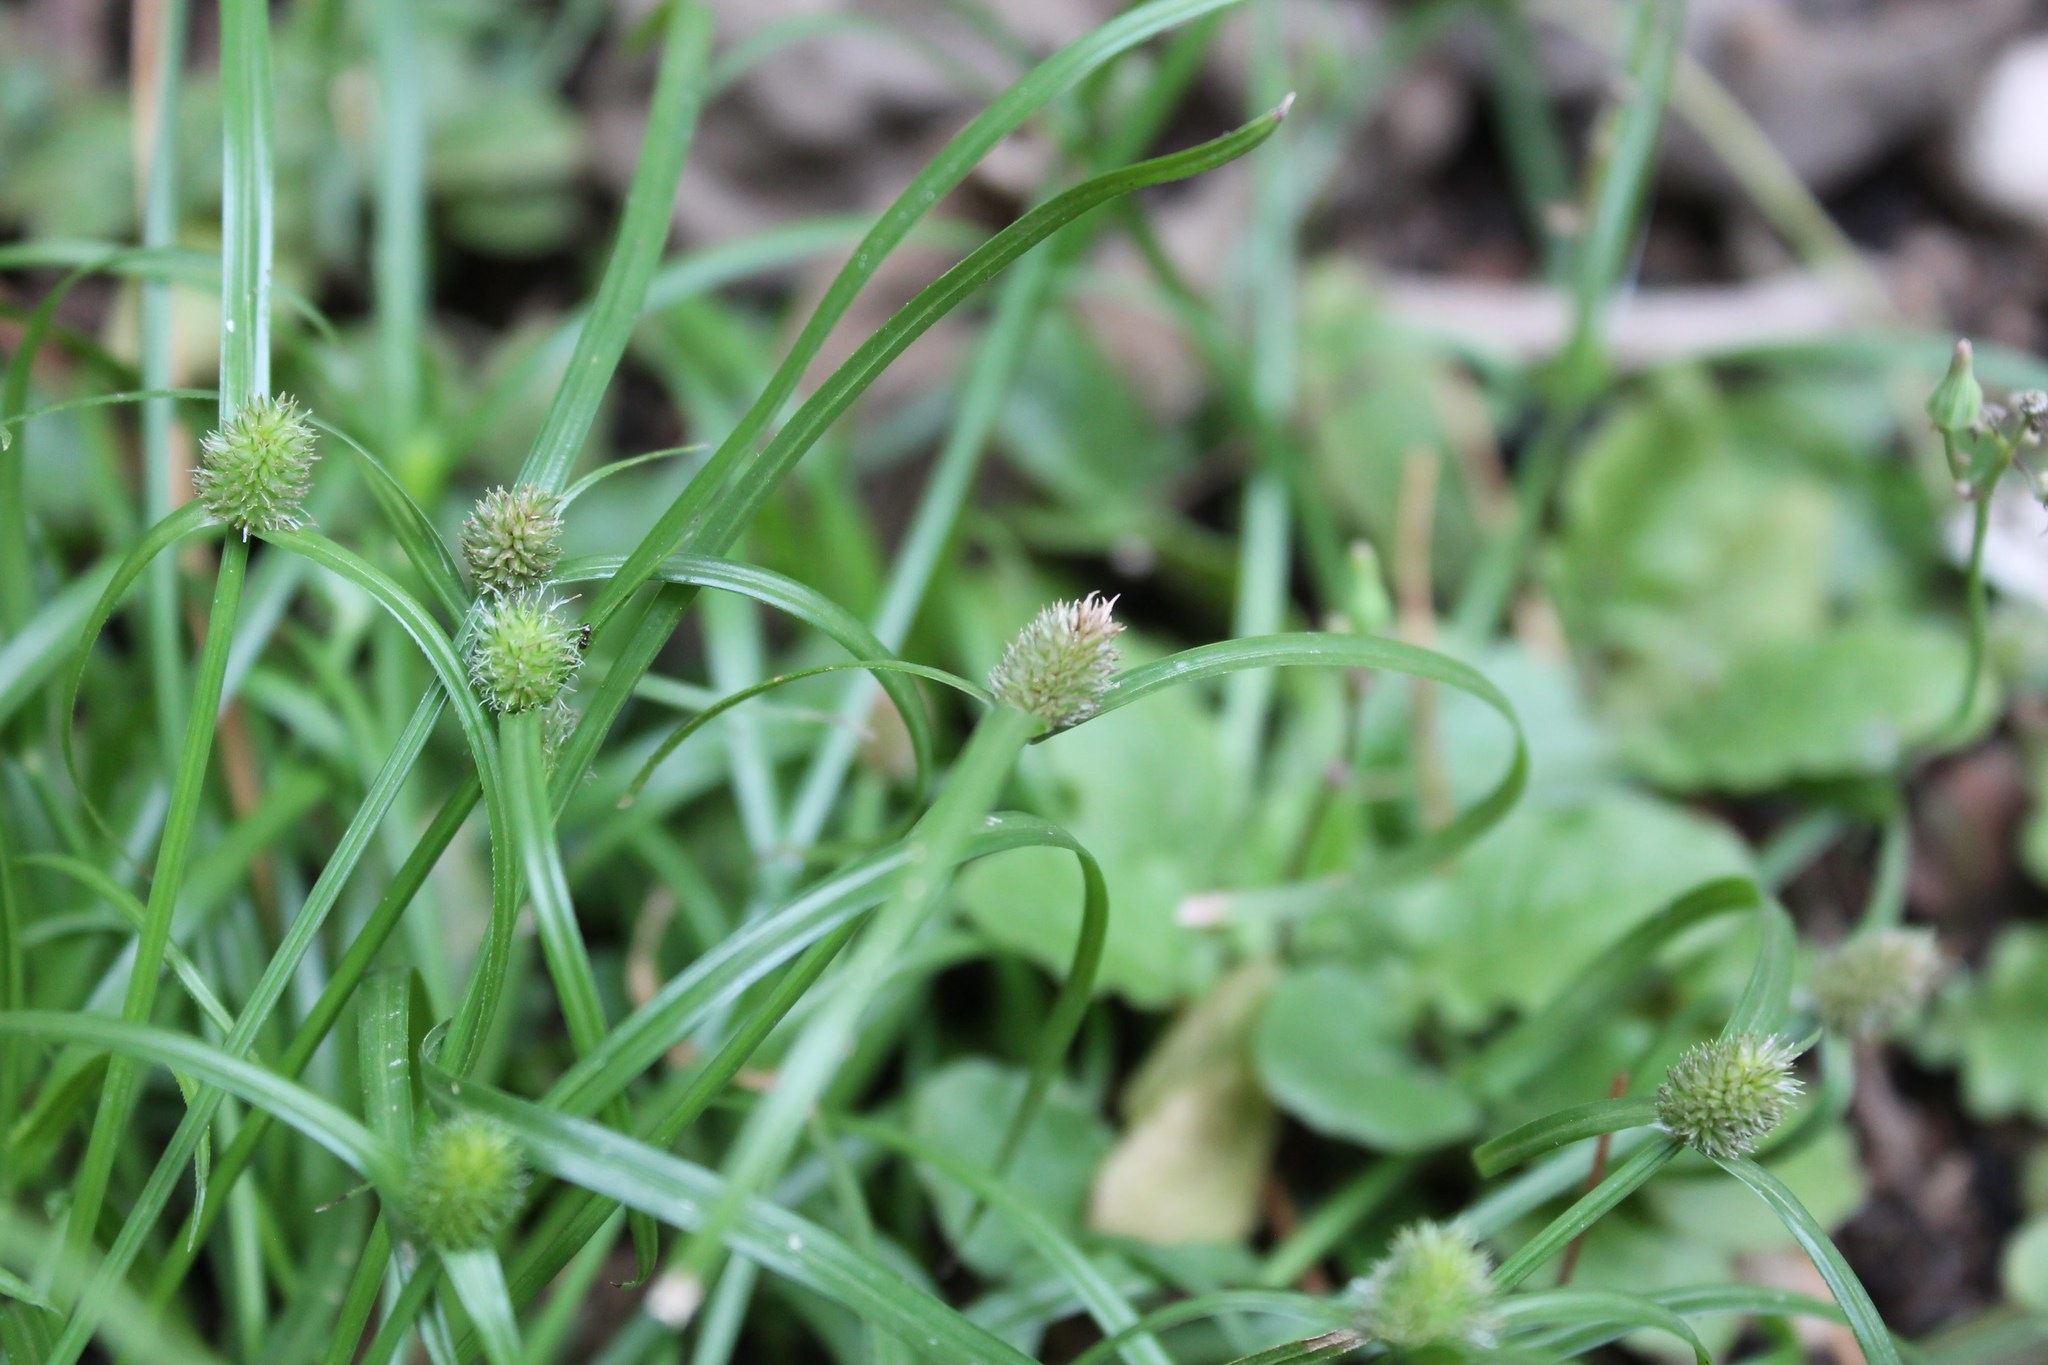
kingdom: Plantae
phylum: Tracheophyta
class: Liliopsida
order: Poales
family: Cyperaceae
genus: Cyperus
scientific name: Cyperus brevifolius
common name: Globe kyllinga
